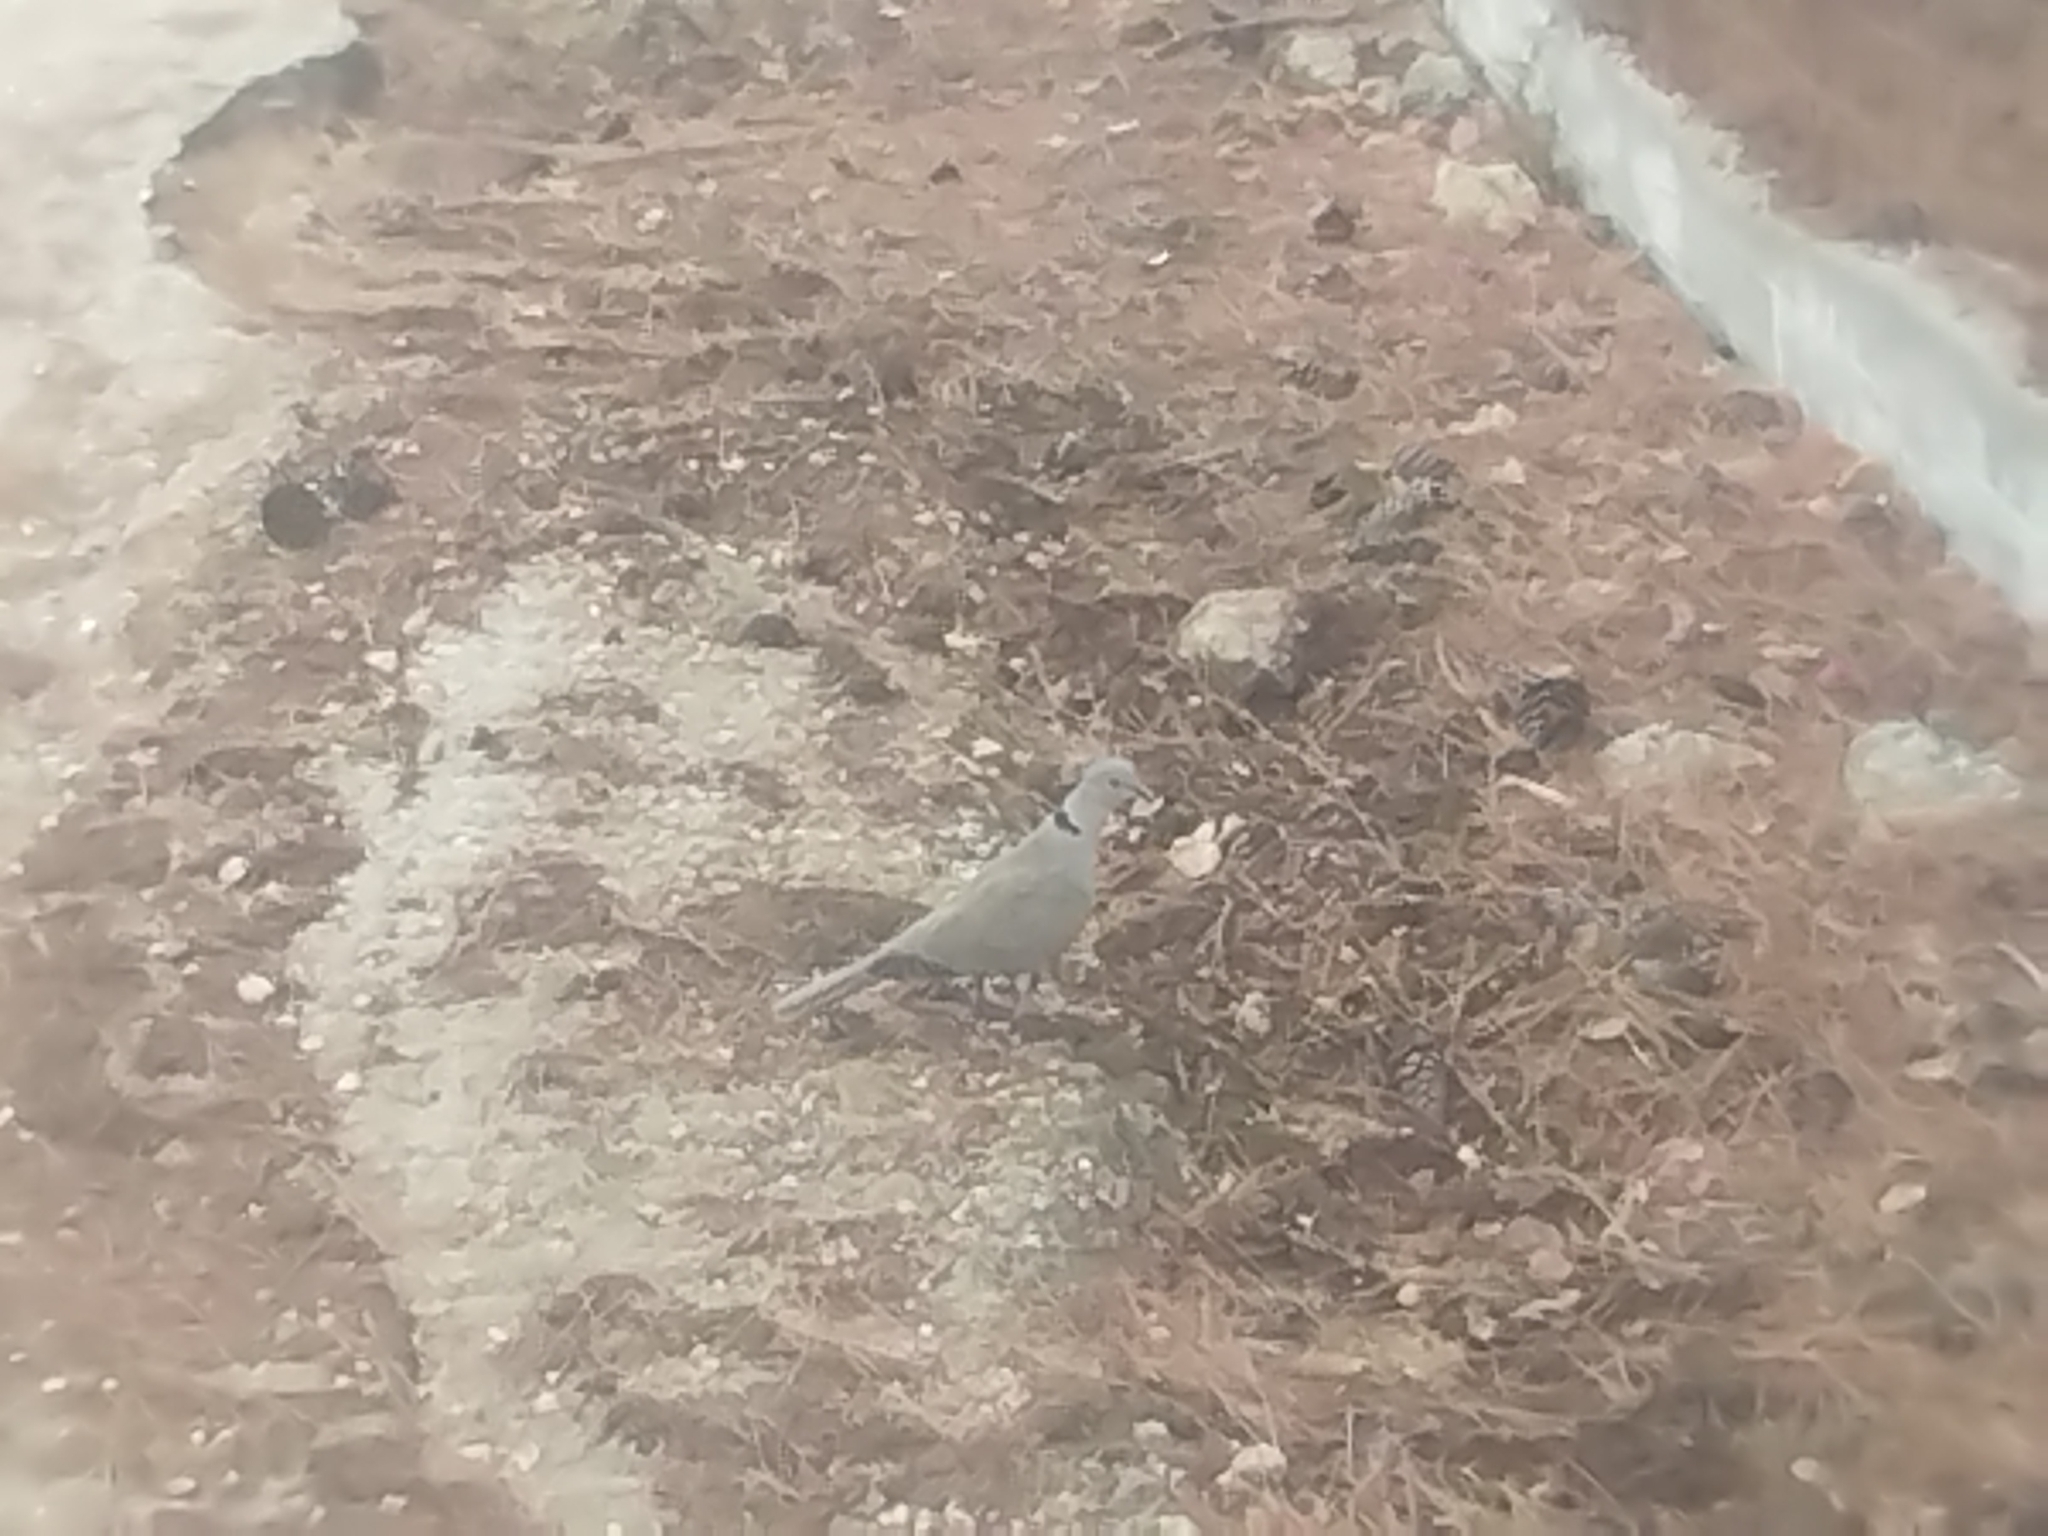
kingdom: Animalia
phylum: Chordata
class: Aves
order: Columbiformes
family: Columbidae
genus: Streptopelia
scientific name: Streptopelia decaocto
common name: Eurasian collared dove
